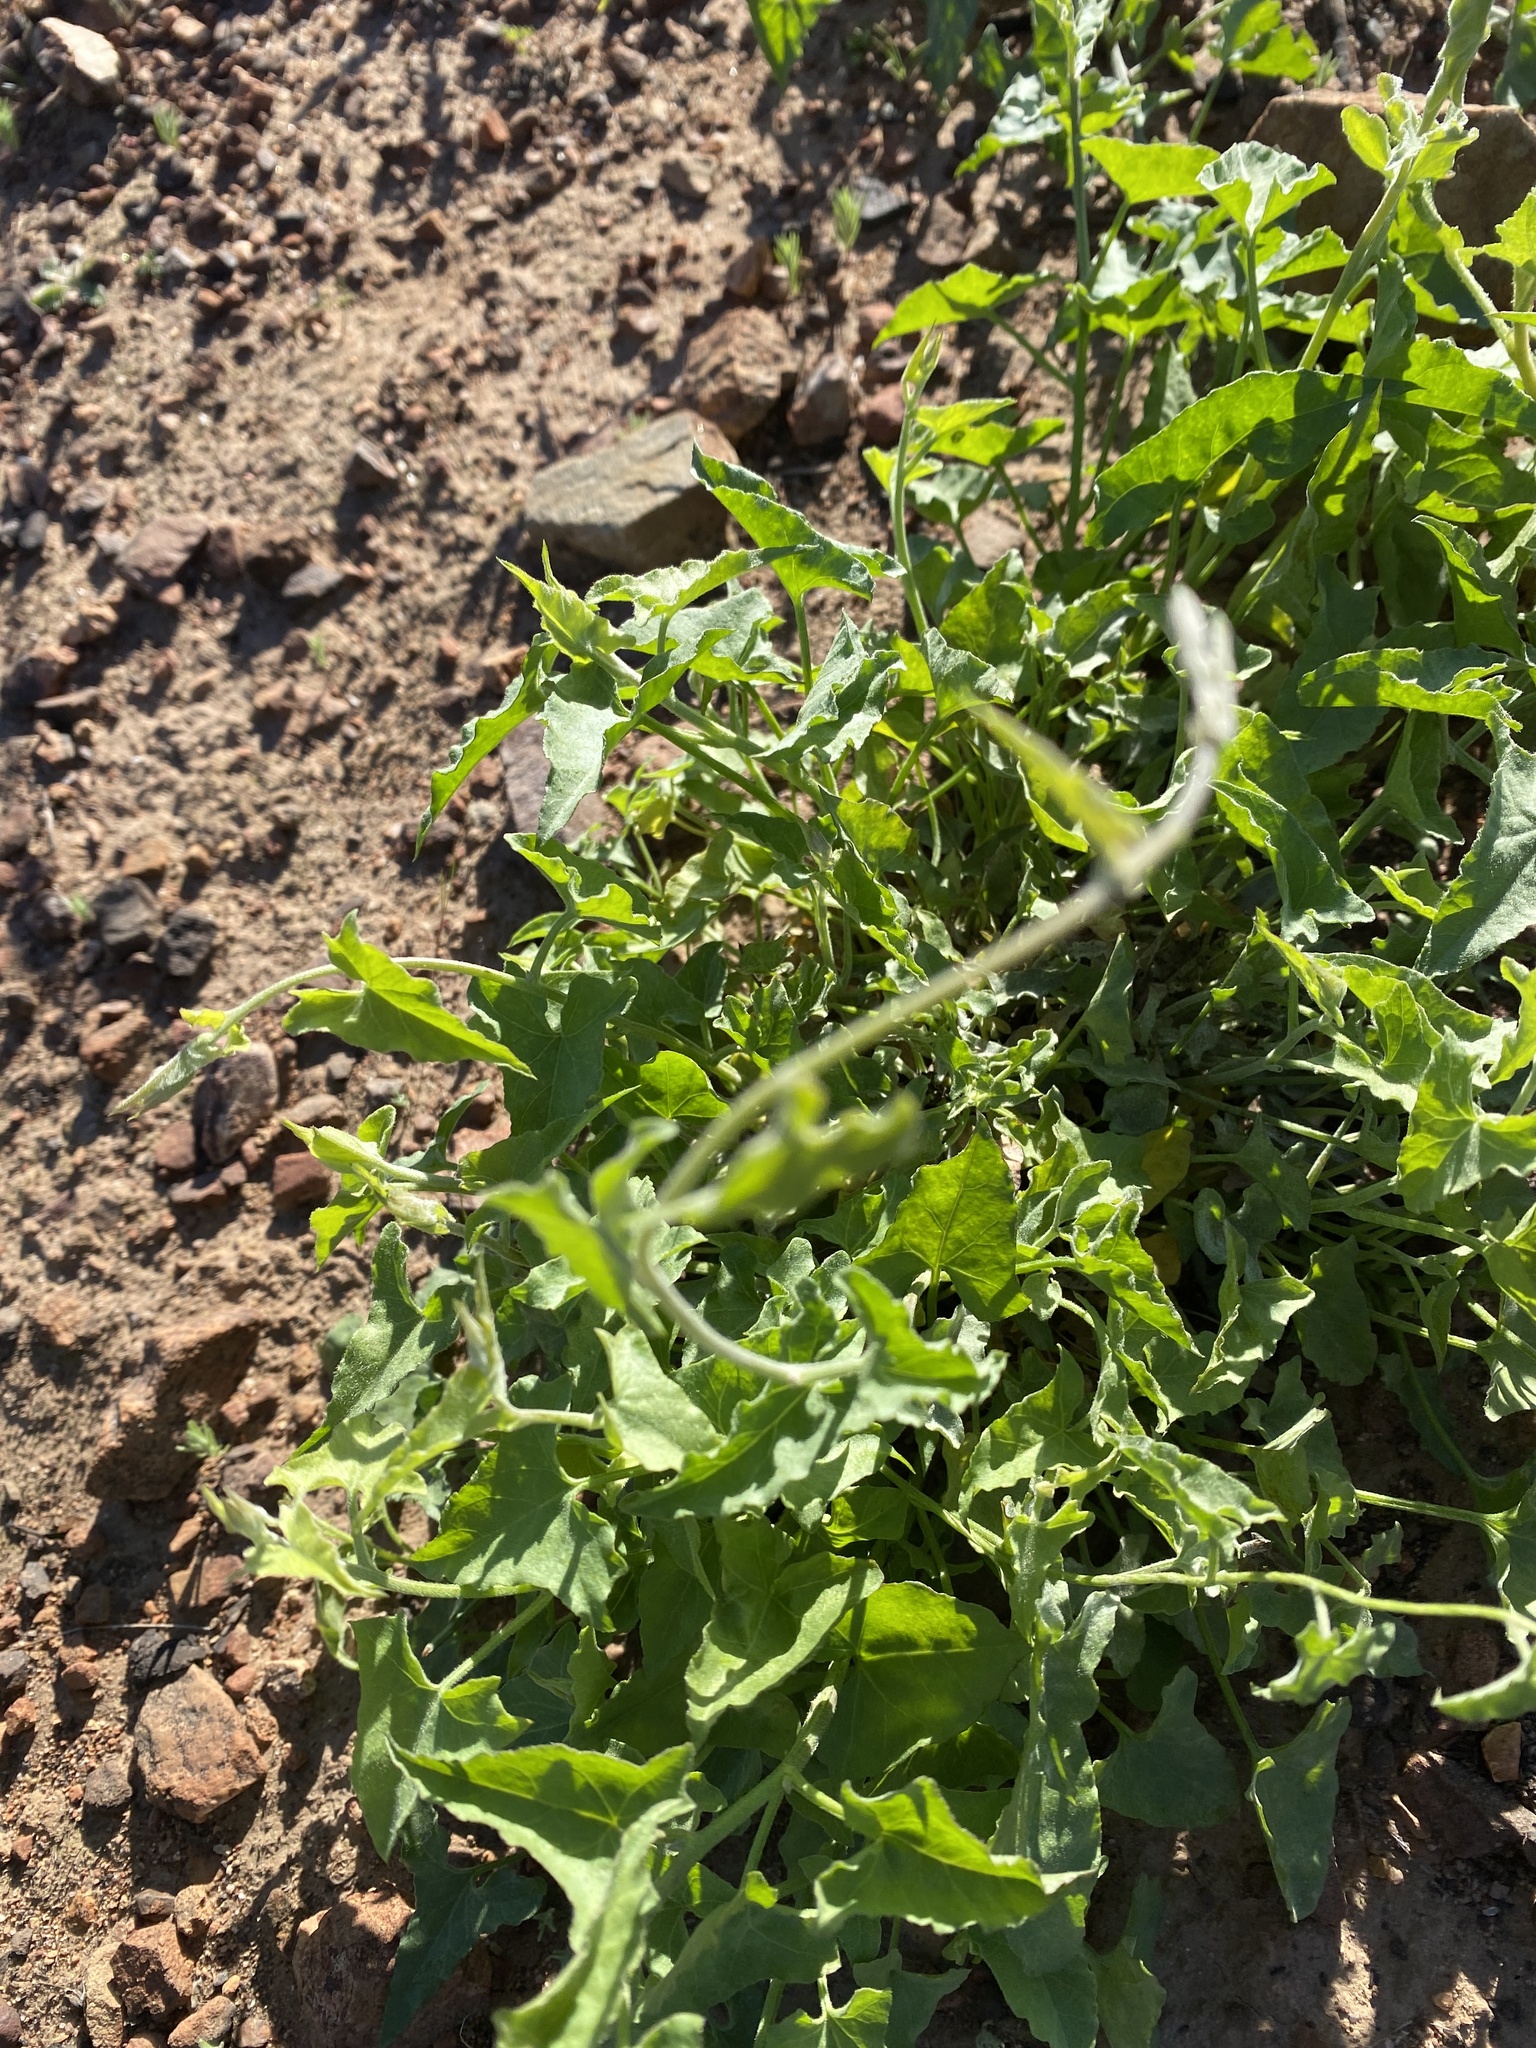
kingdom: Plantae
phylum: Tracheophyta
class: Magnoliopsida
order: Solanales
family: Convolvulaceae
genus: Calystegia
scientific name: Calystegia macrostegia
